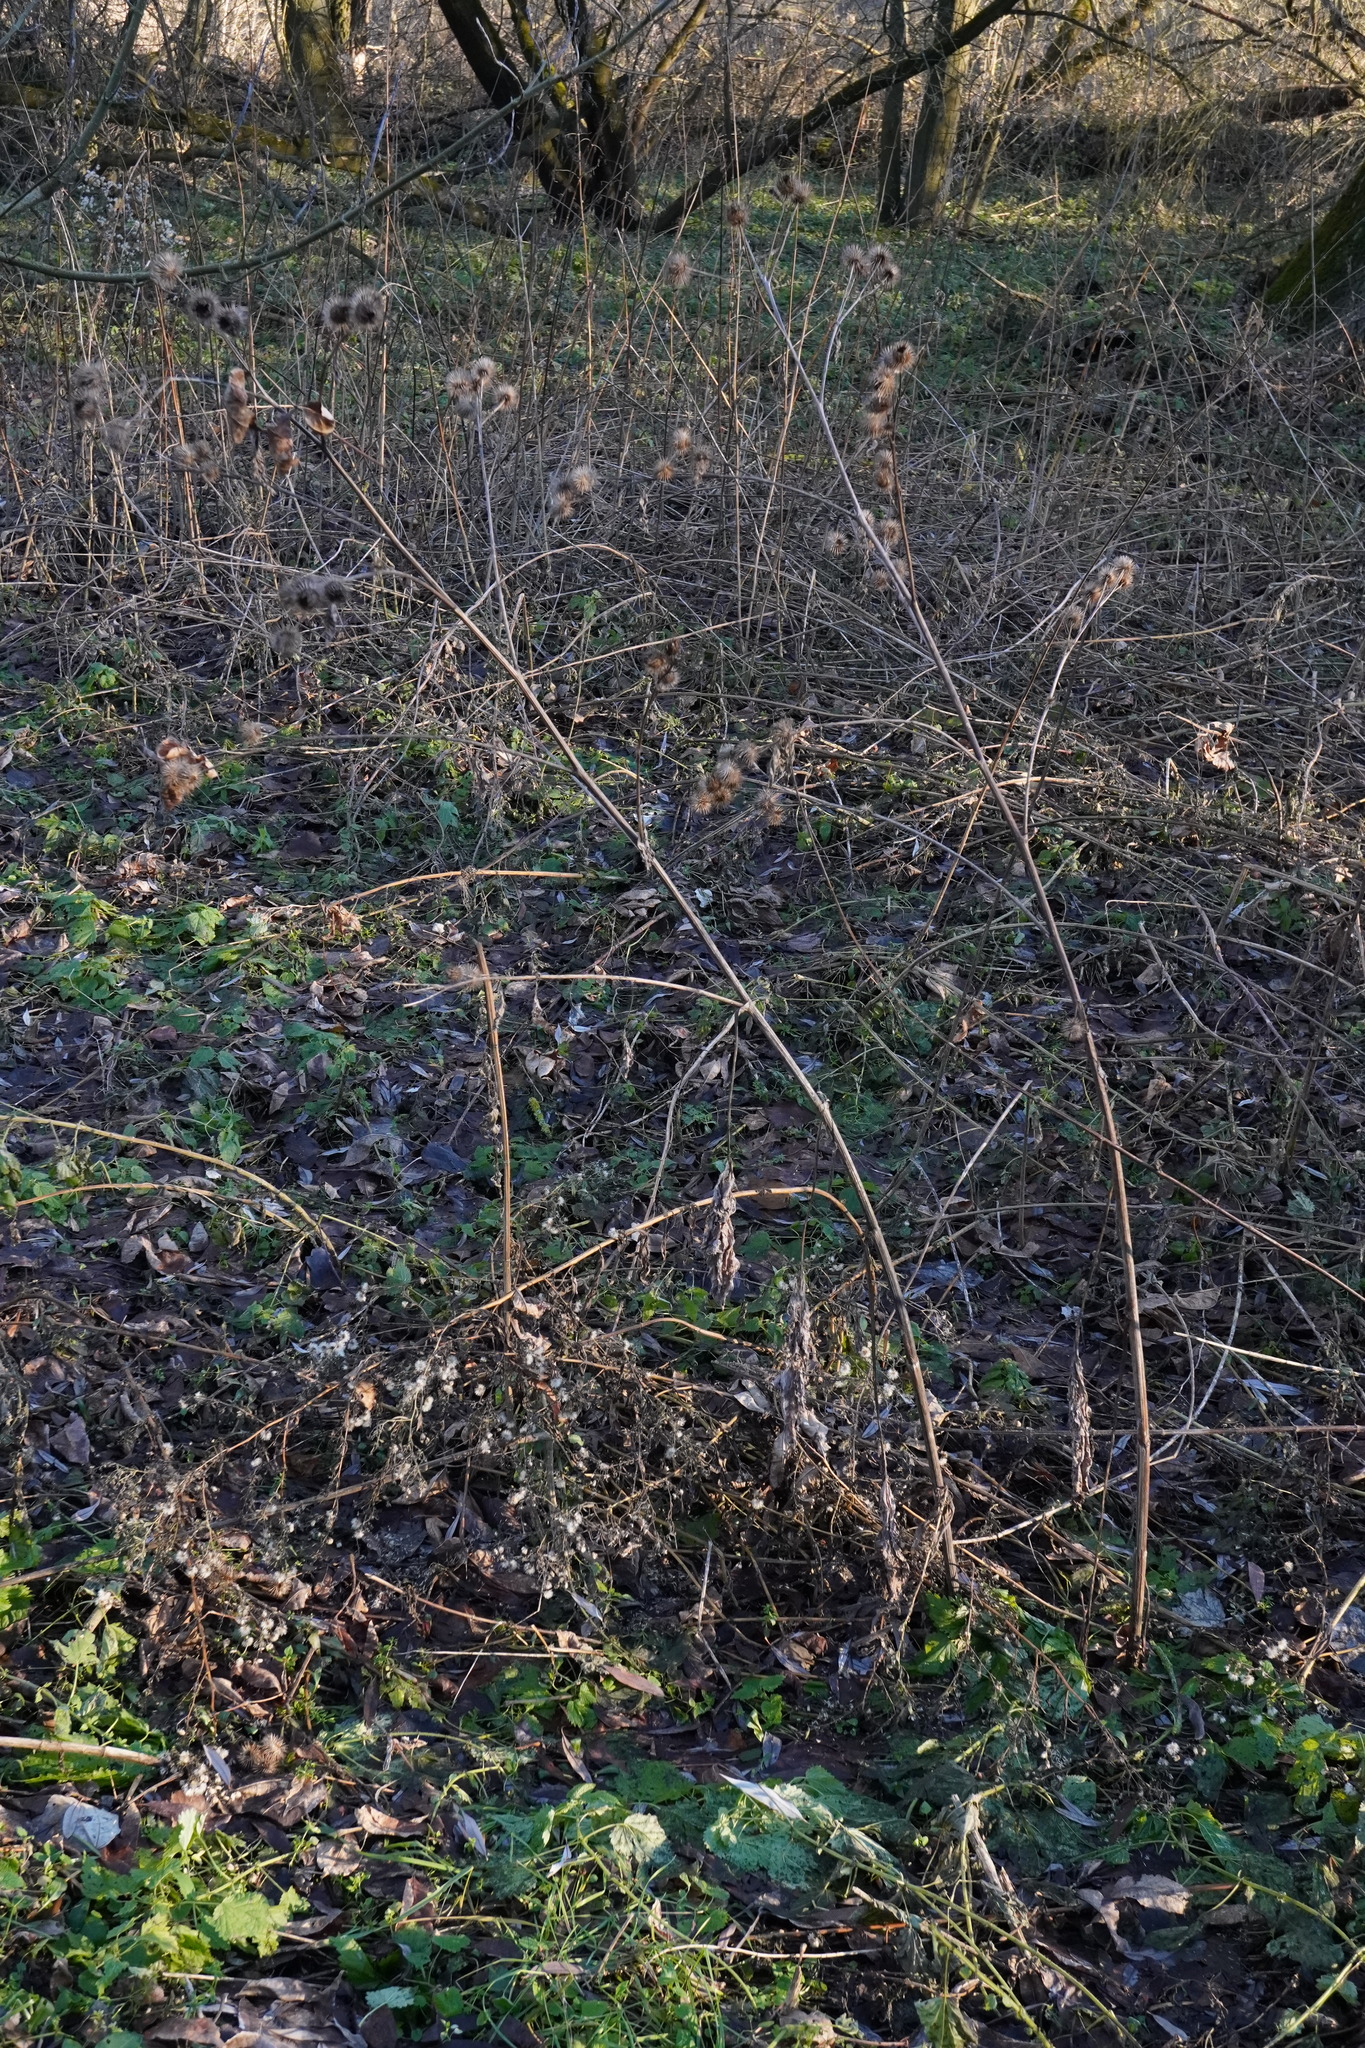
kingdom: Plantae
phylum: Tracheophyta
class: Magnoliopsida
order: Asterales
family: Asteraceae
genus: Arctium
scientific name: Arctium lappa
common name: Greater burdock
